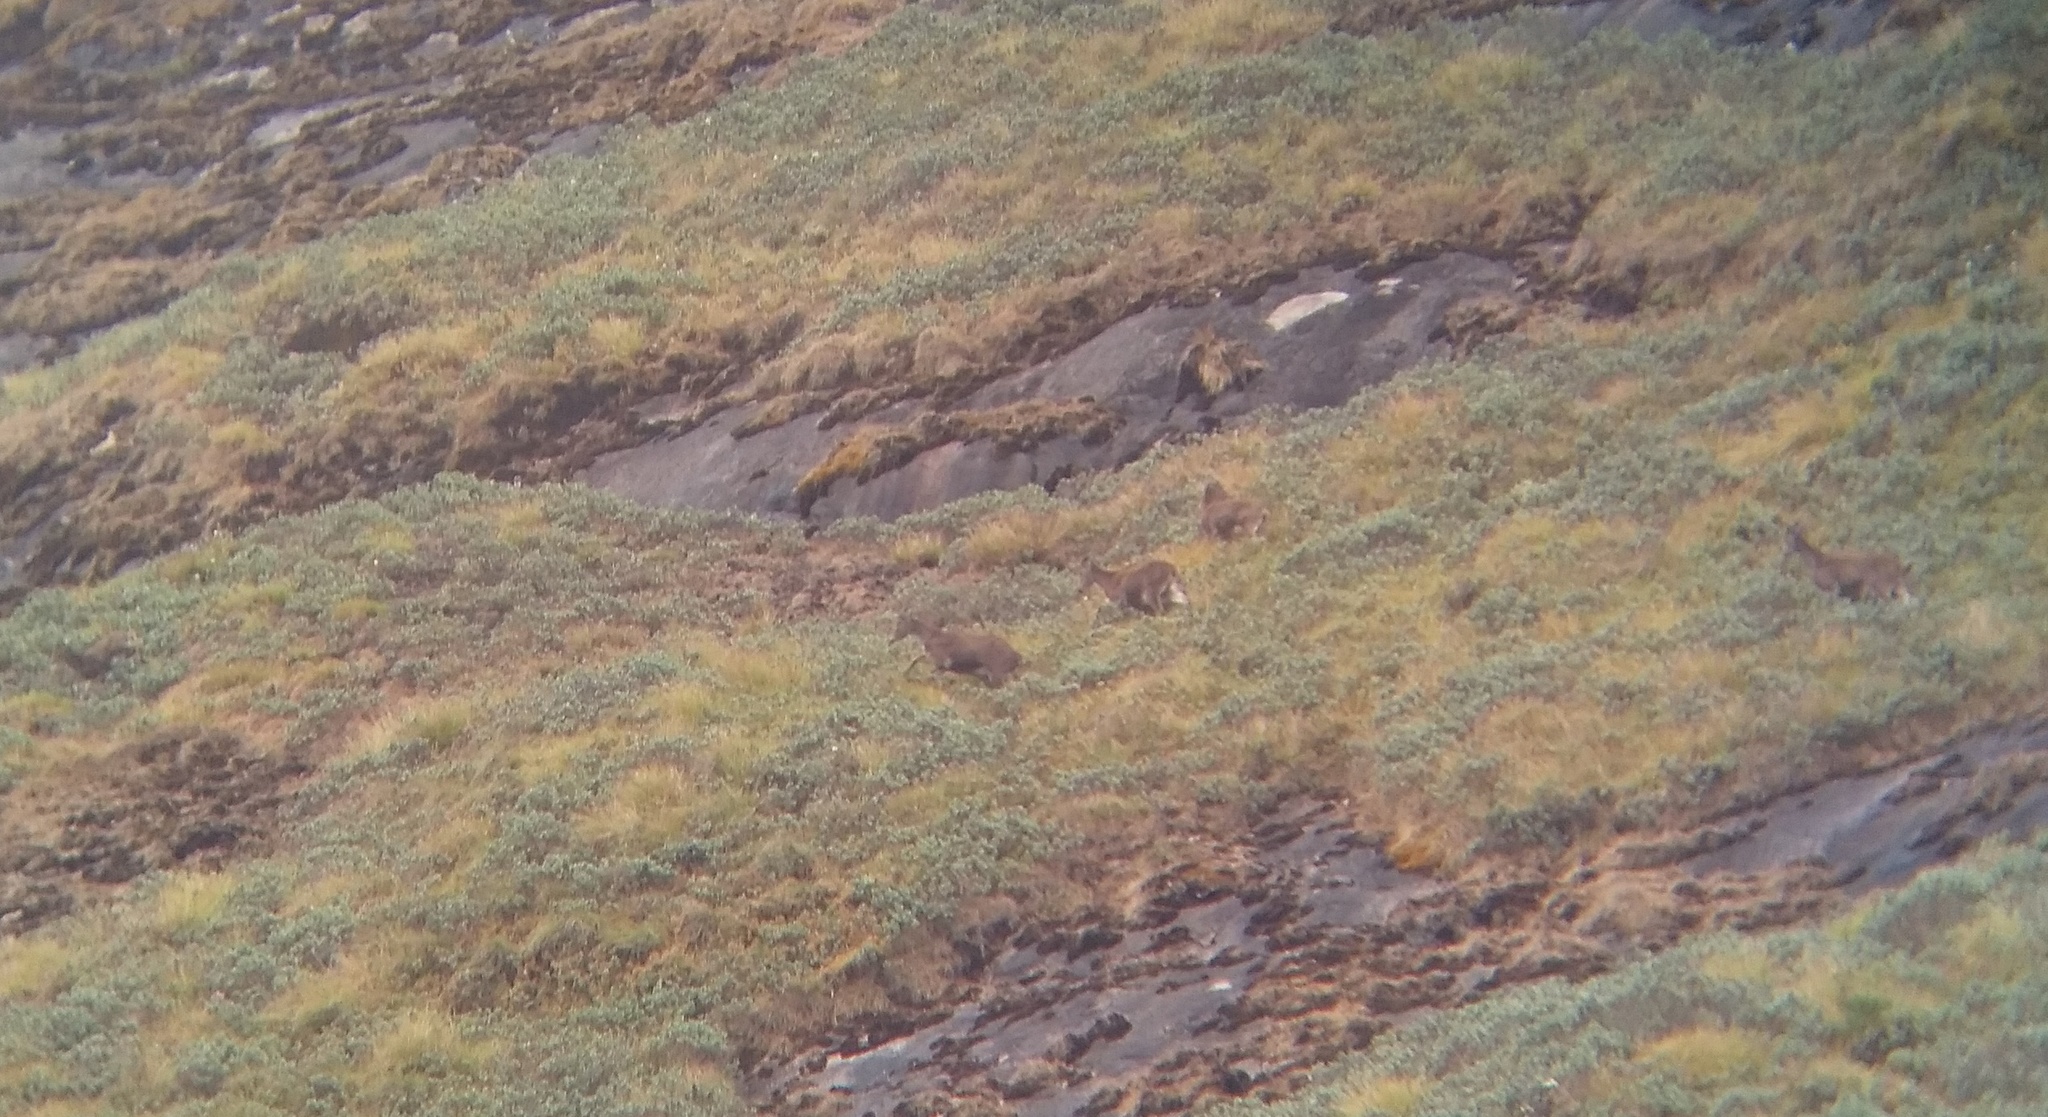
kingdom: Animalia
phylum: Chordata
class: Mammalia
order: Artiodactyla
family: Bovidae
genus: Hemitragus
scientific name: Hemitragus hylocrius
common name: Nilgiri tahr
